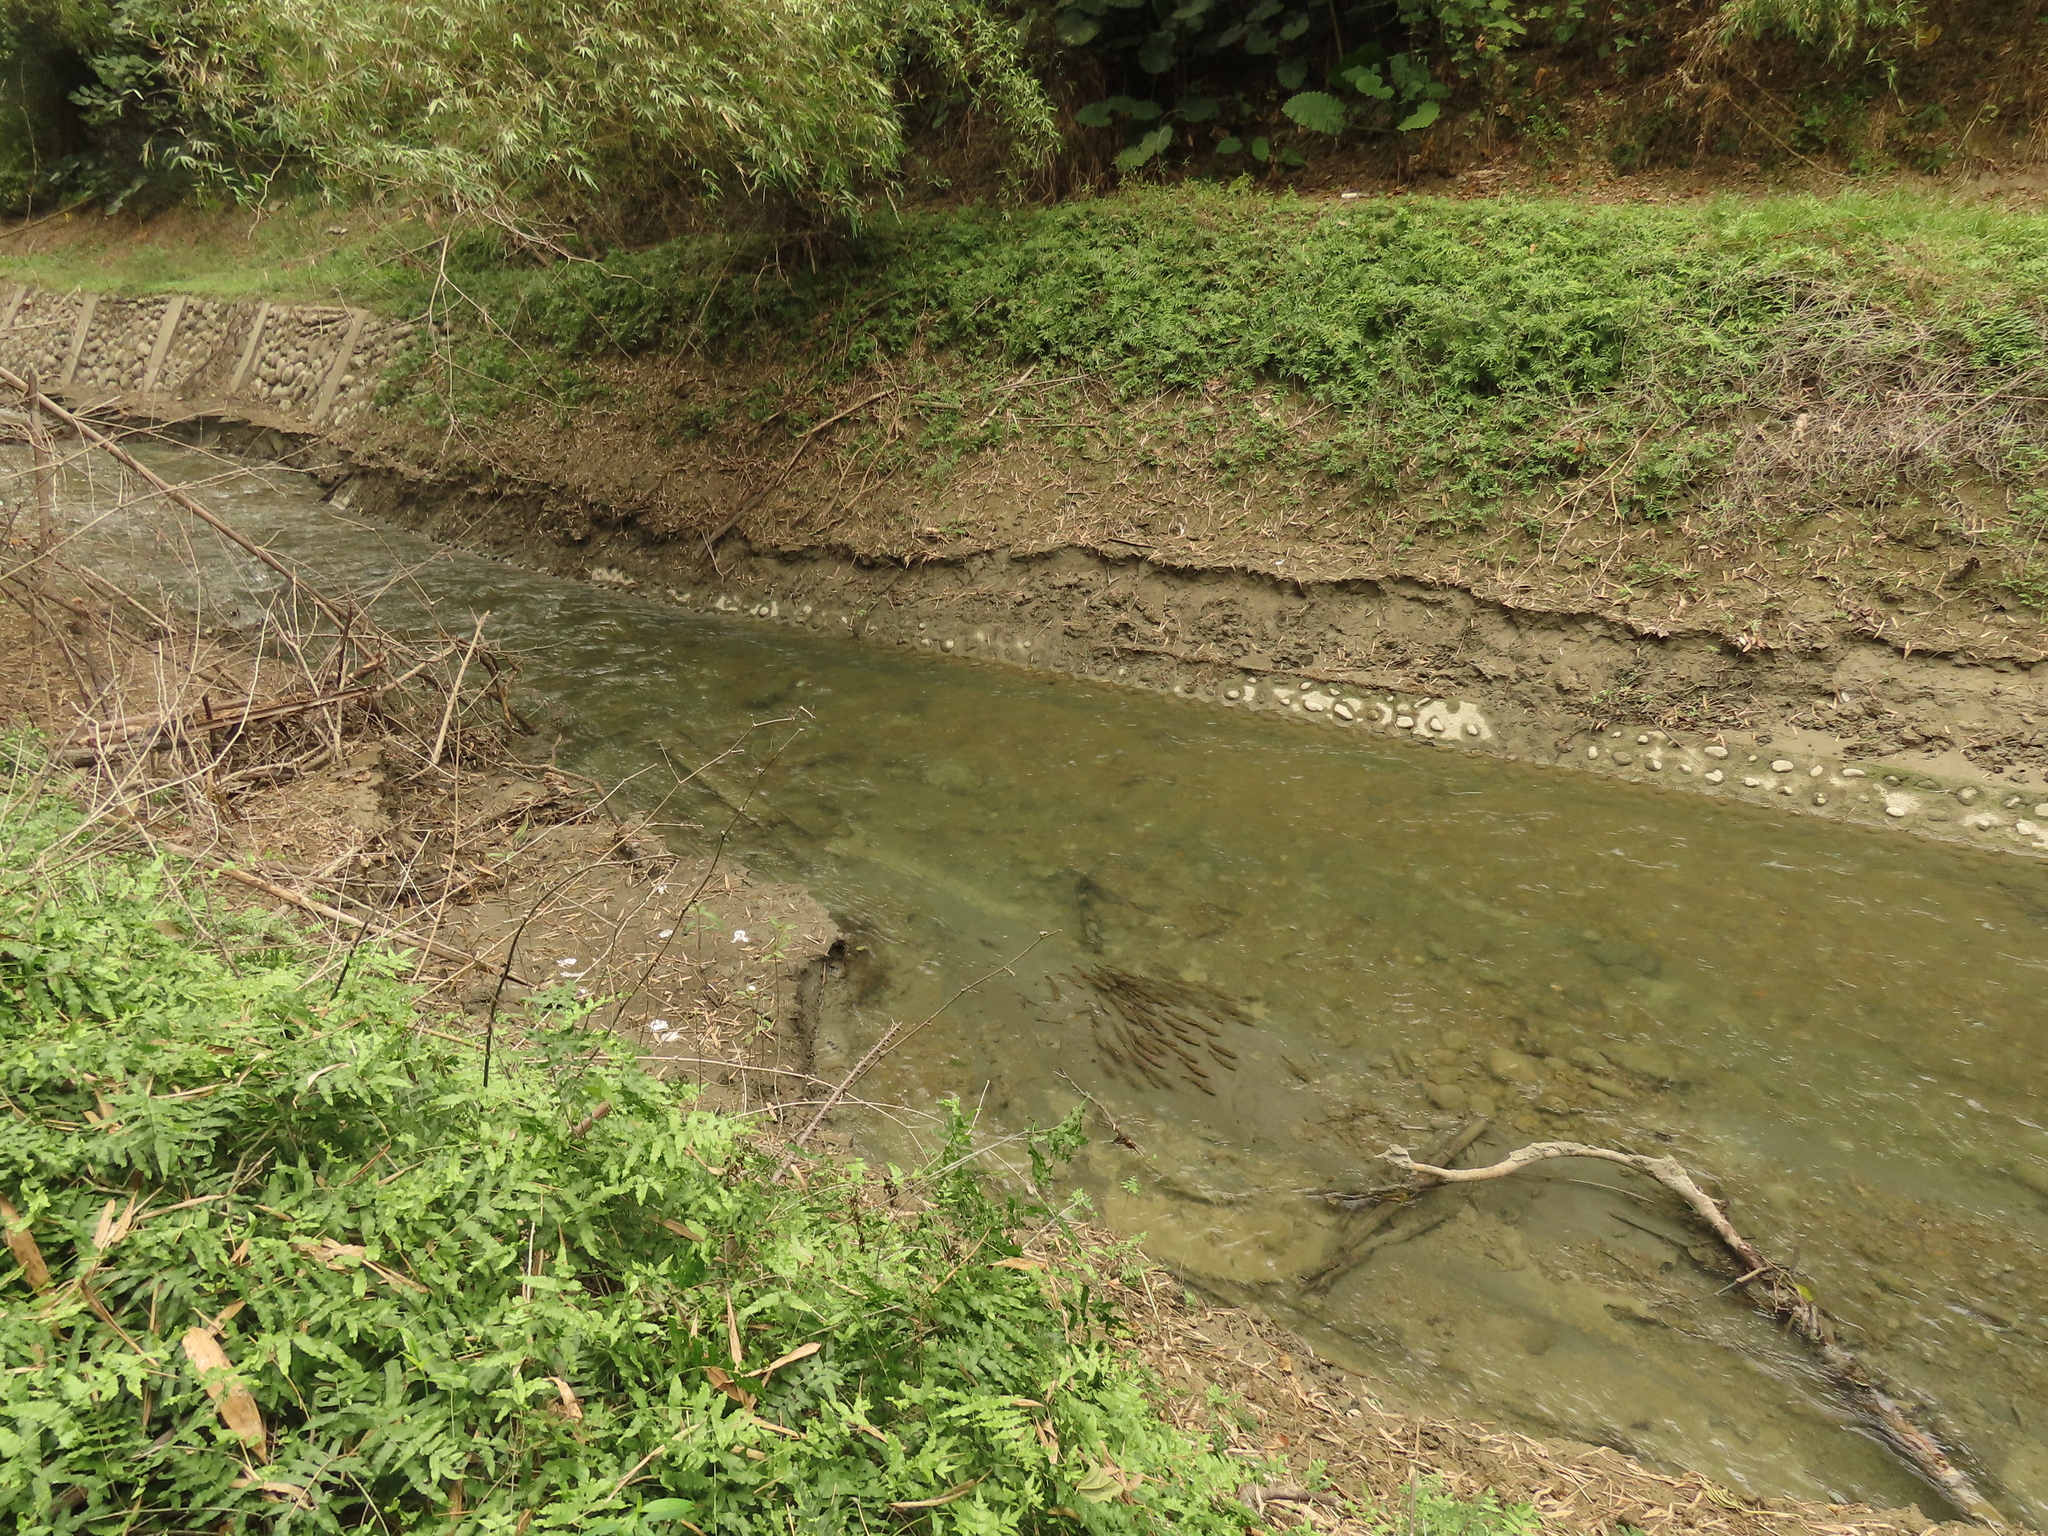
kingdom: Animalia
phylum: Chordata
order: Perciformes
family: Channidae
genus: Channa
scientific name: Channa micropeltes
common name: Giant snakehead
